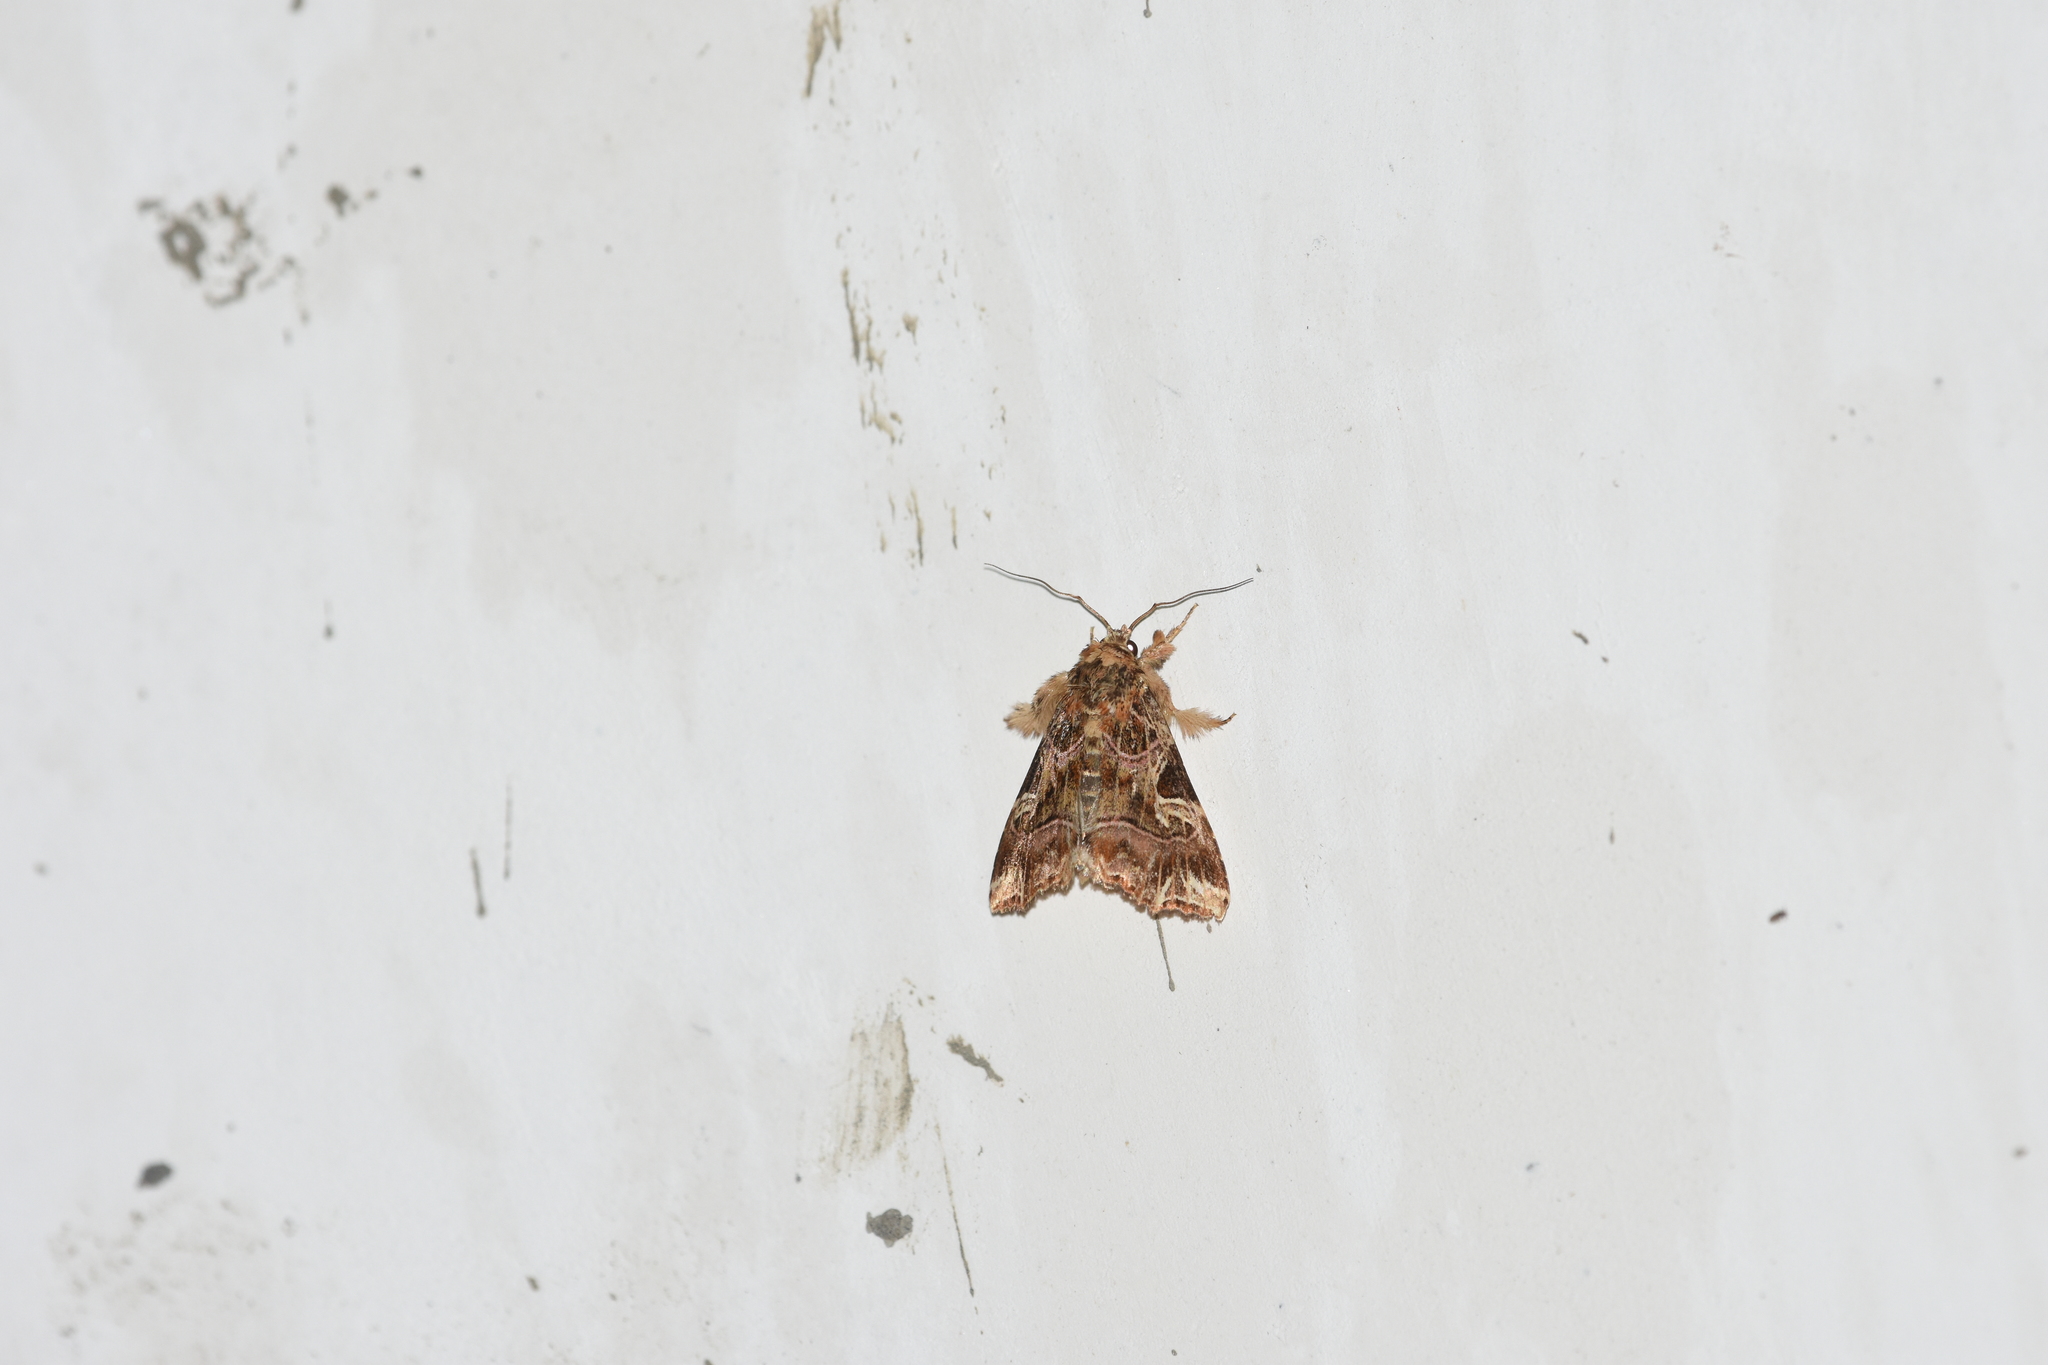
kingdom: Animalia
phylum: Arthropoda
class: Insecta
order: Lepidoptera
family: Noctuidae
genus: Callopistria
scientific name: Callopistria juventina
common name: Latin
